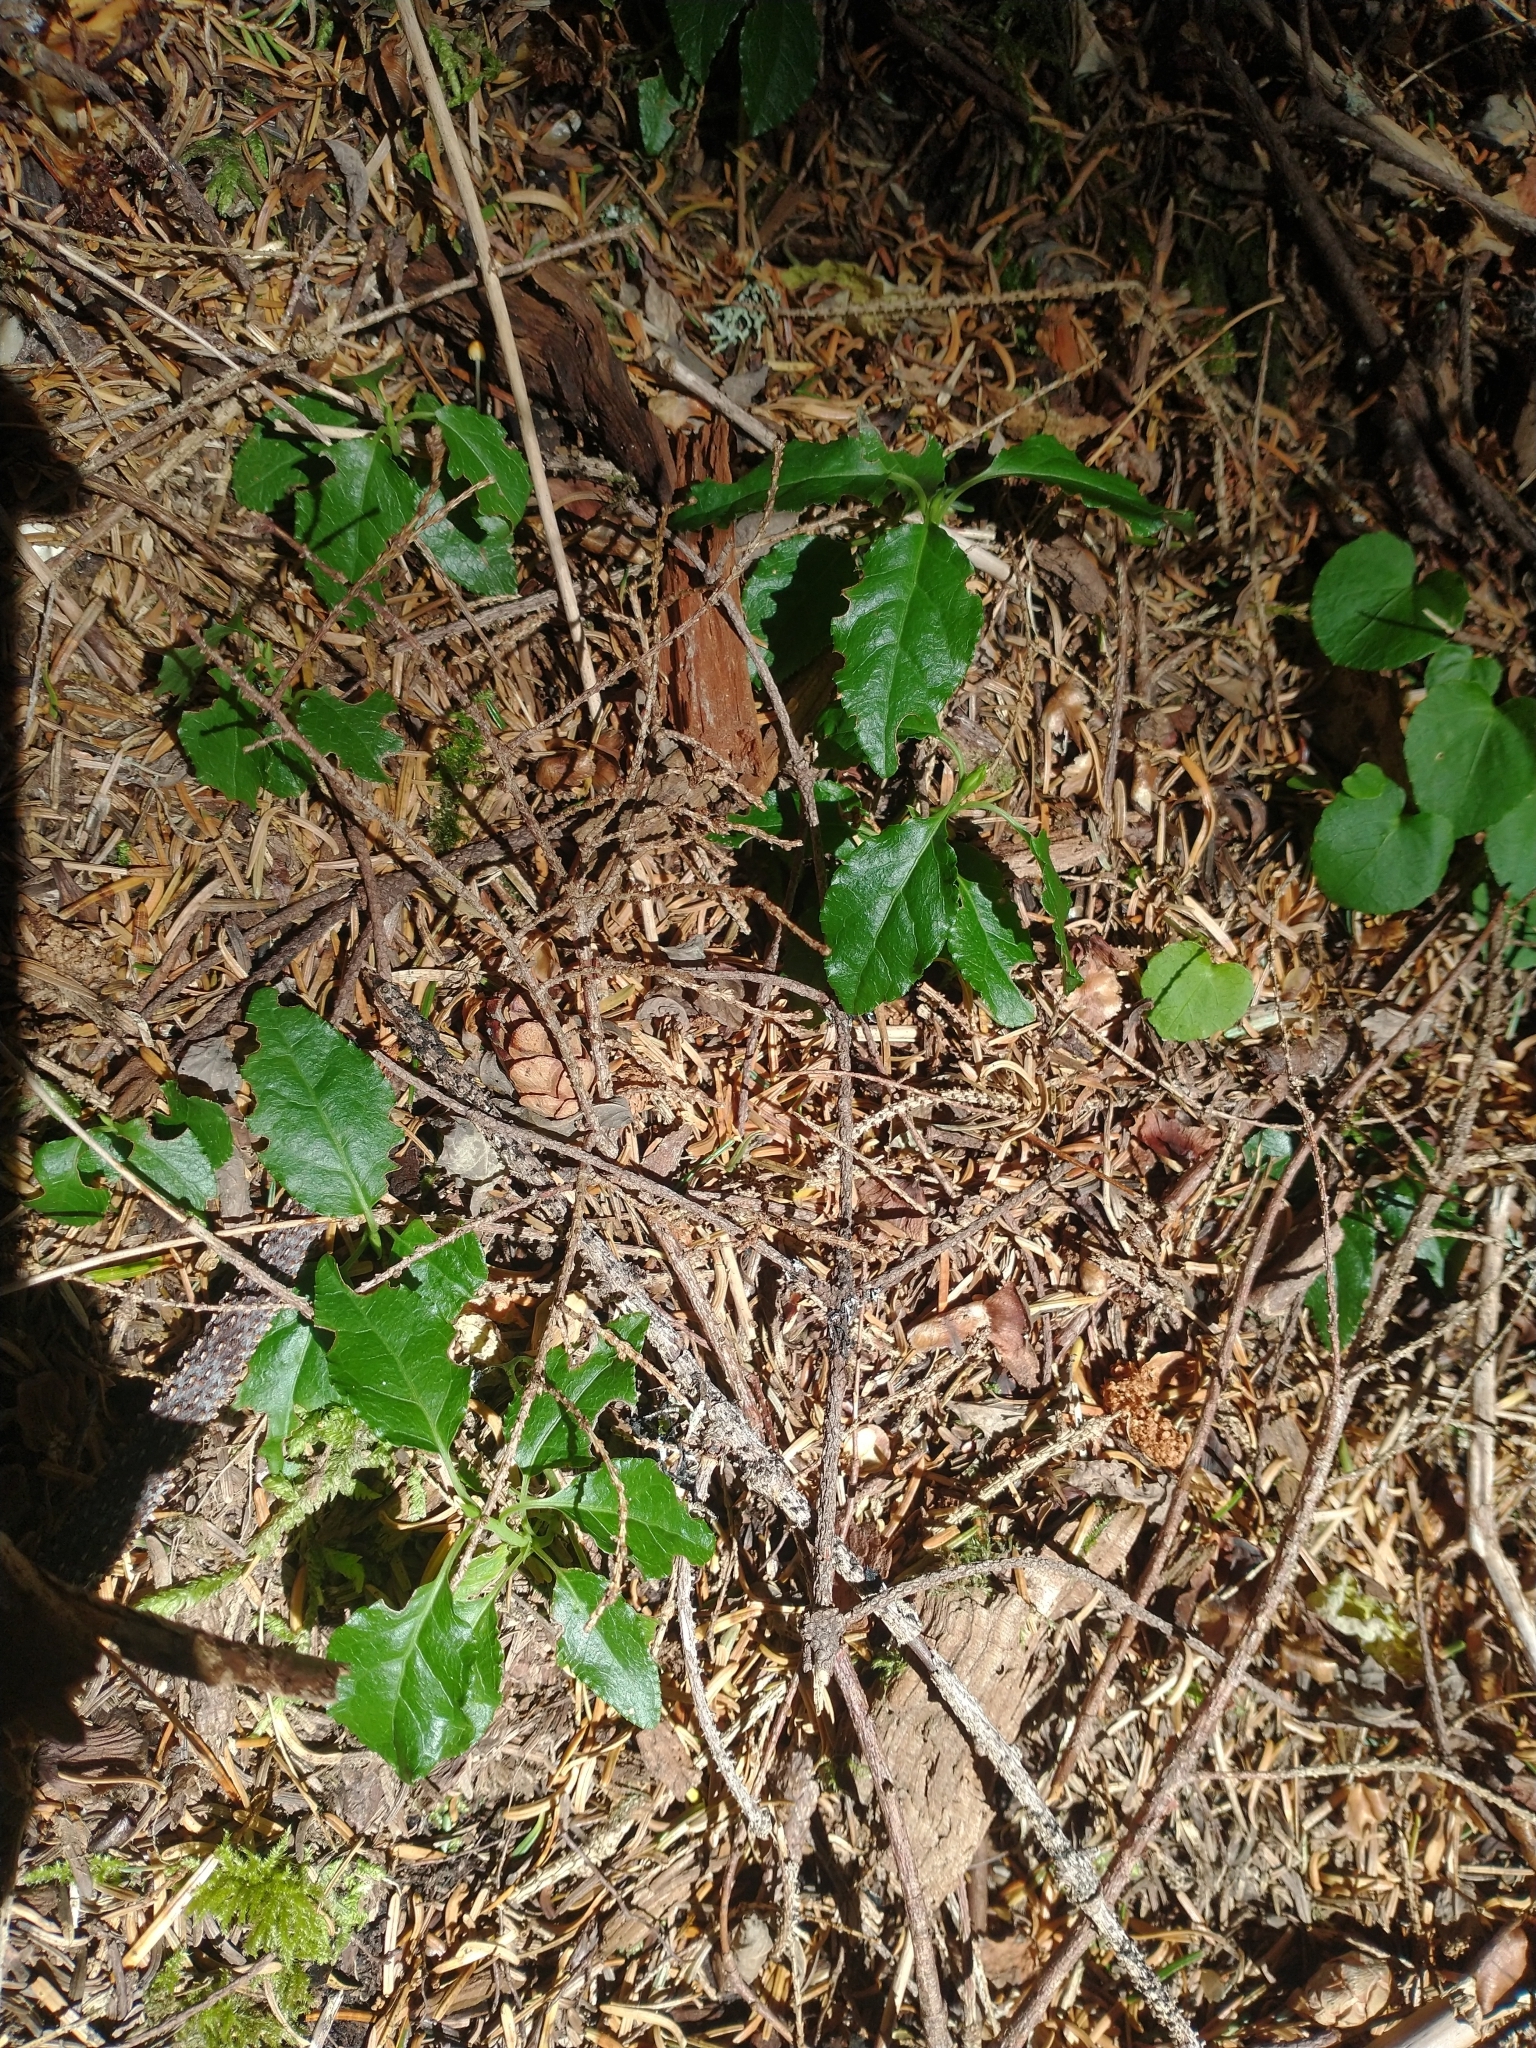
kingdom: Plantae
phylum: Tracheophyta
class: Magnoliopsida
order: Ericales
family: Ericaceae
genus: Orthilia
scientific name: Orthilia secunda
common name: One-sided orthilia
